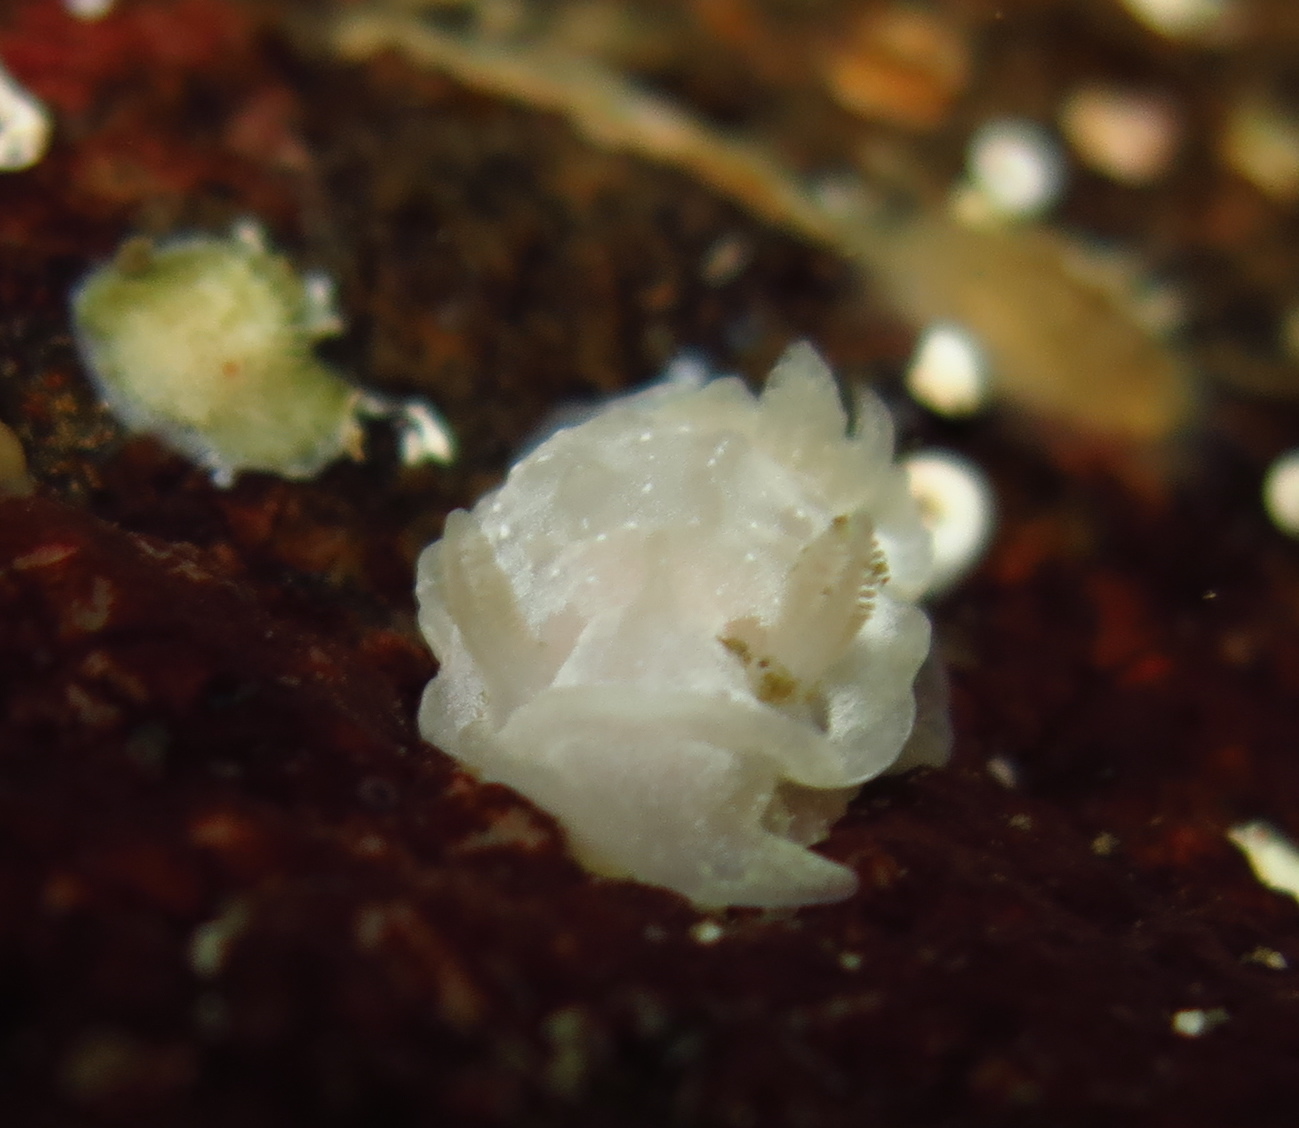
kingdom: Animalia
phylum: Mollusca
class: Gastropoda
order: Nudibranchia
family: Goniodorididae
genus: Okenia
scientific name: Okenia
